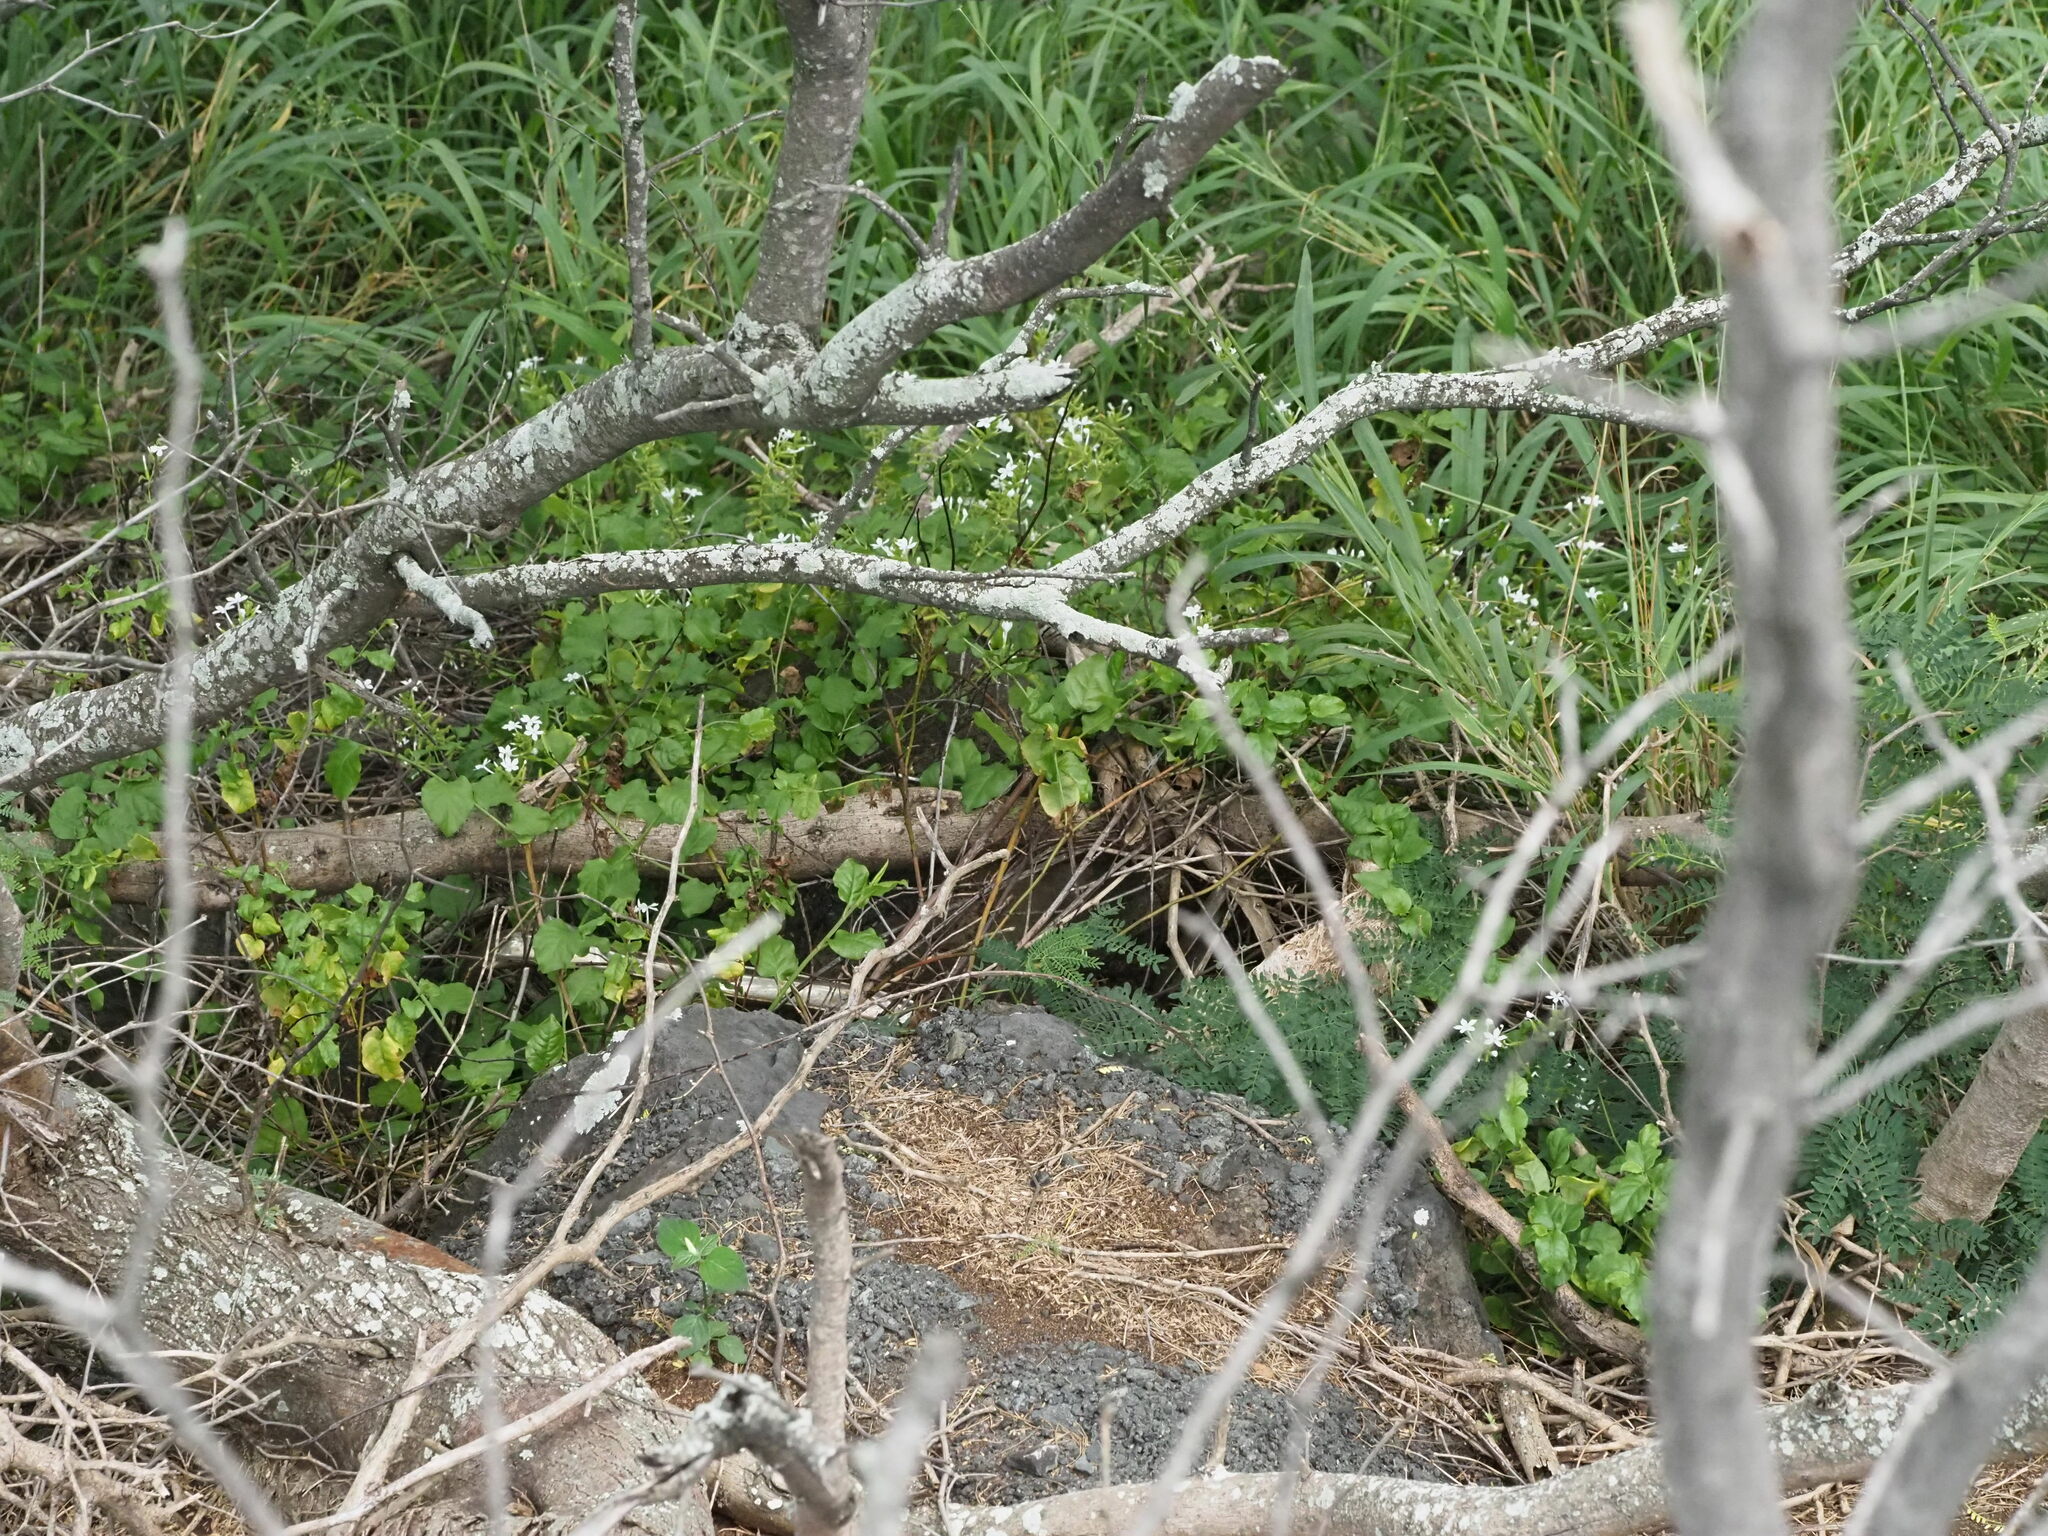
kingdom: Plantae
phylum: Tracheophyta
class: Magnoliopsida
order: Caryophyllales
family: Plumbaginaceae
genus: Plumbago
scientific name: Plumbago zeylanica
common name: Doctorbush
